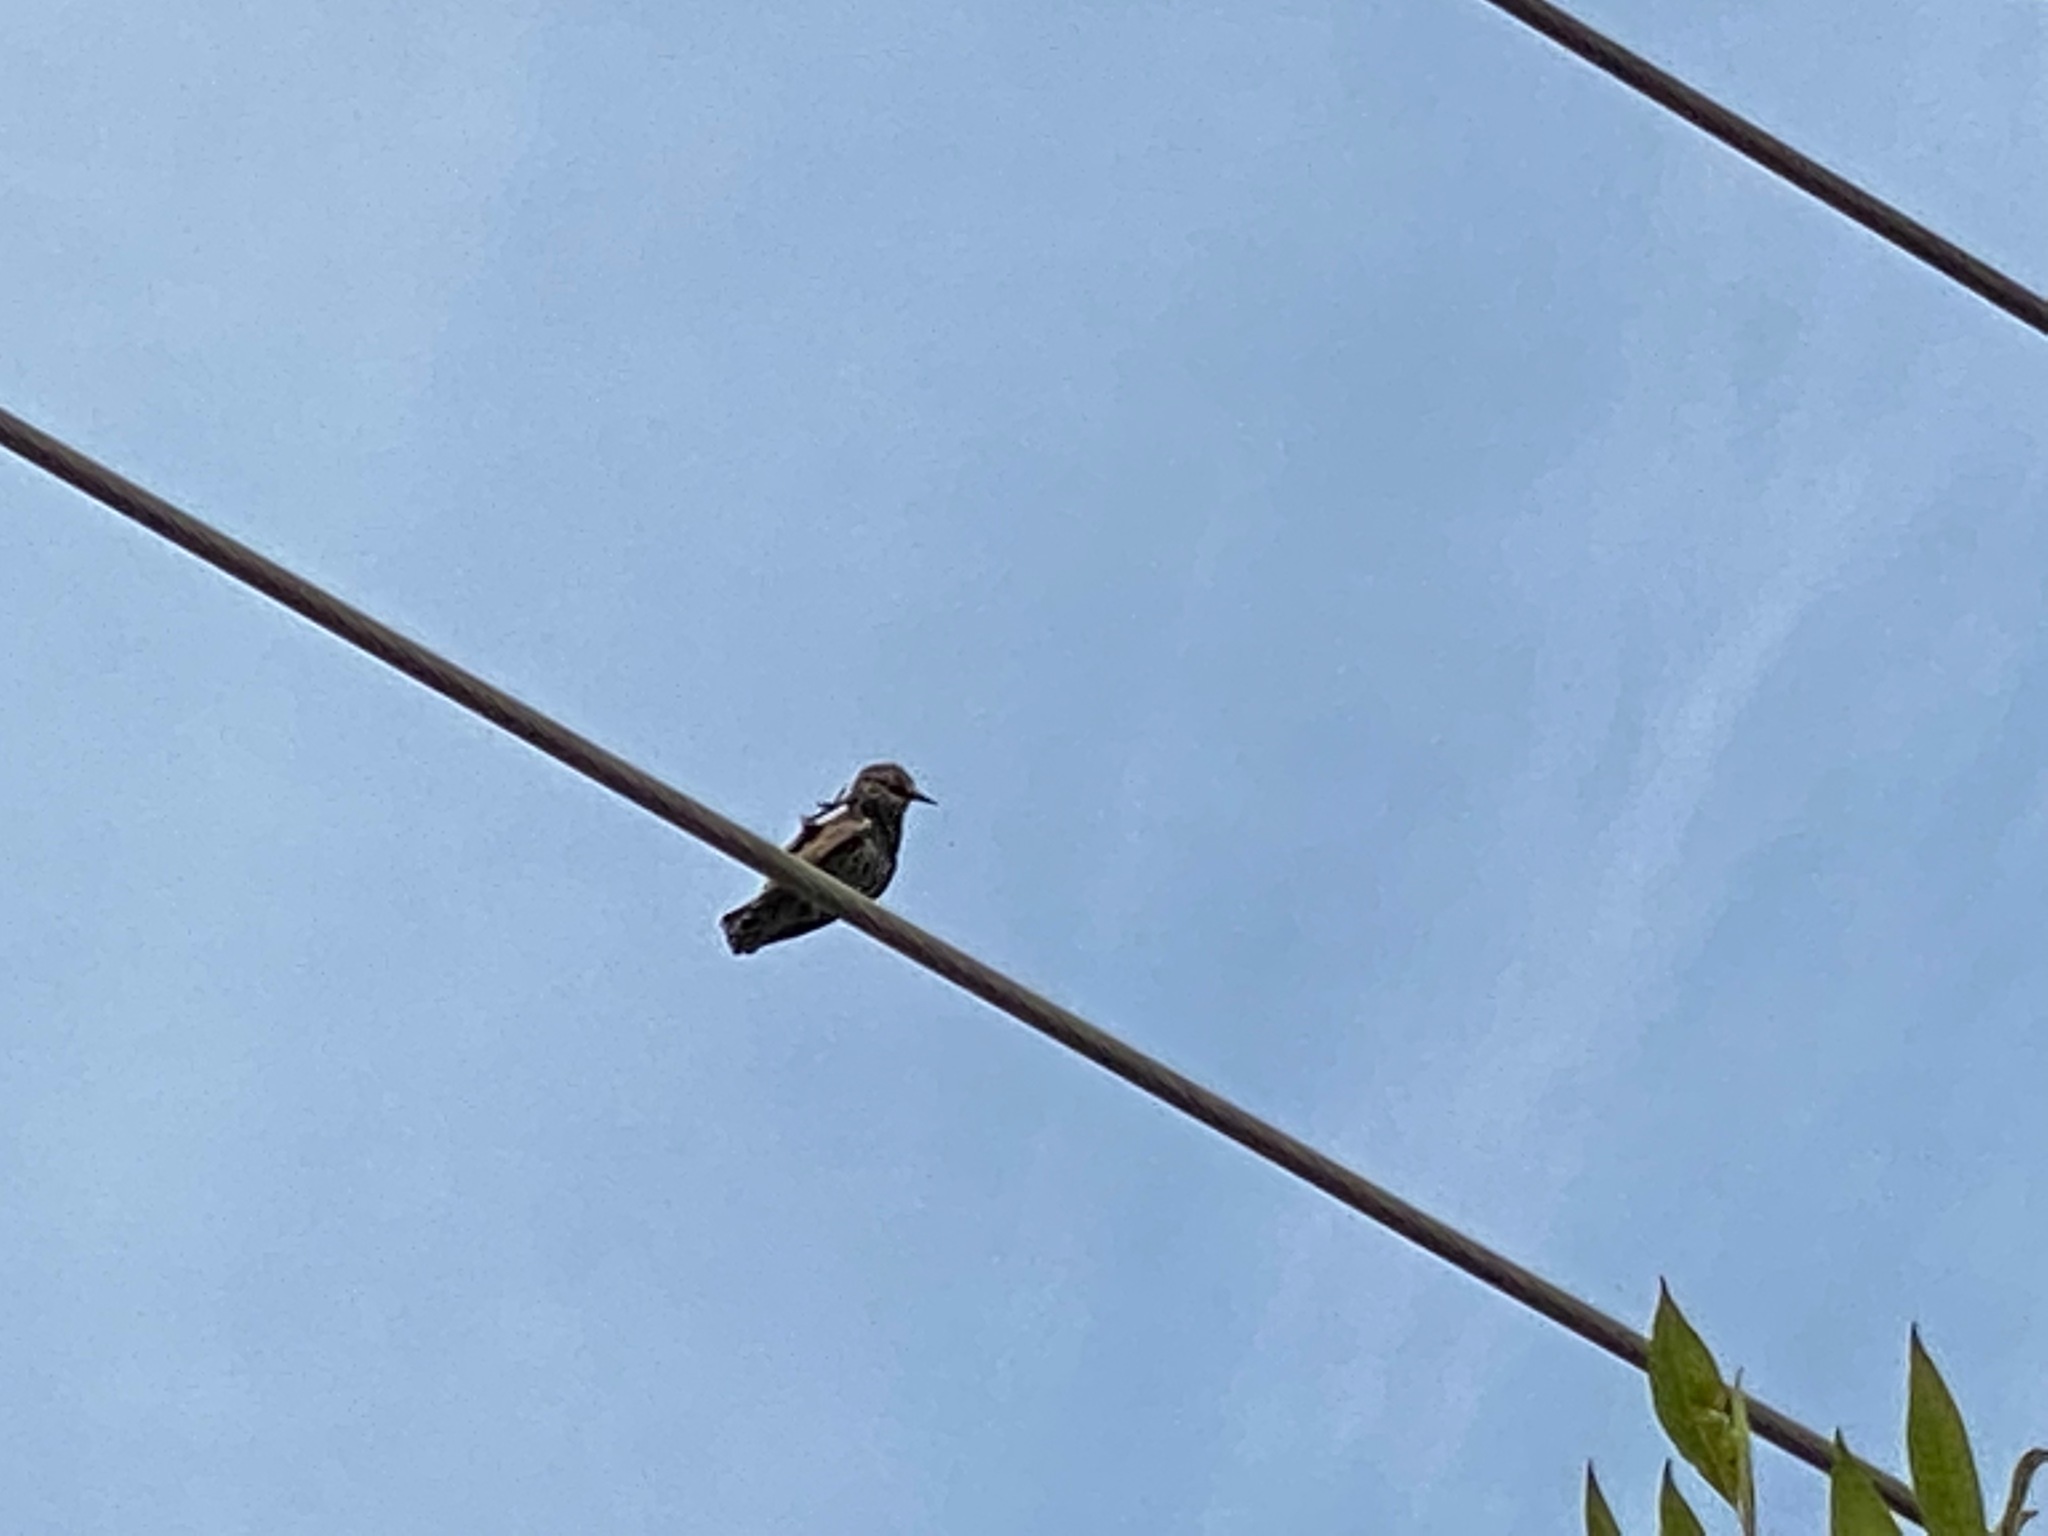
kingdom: Animalia
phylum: Chordata
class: Aves
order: Passeriformes
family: Sturnidae
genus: Sturnus
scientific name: Sturnus vulgaris
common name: Common starling
